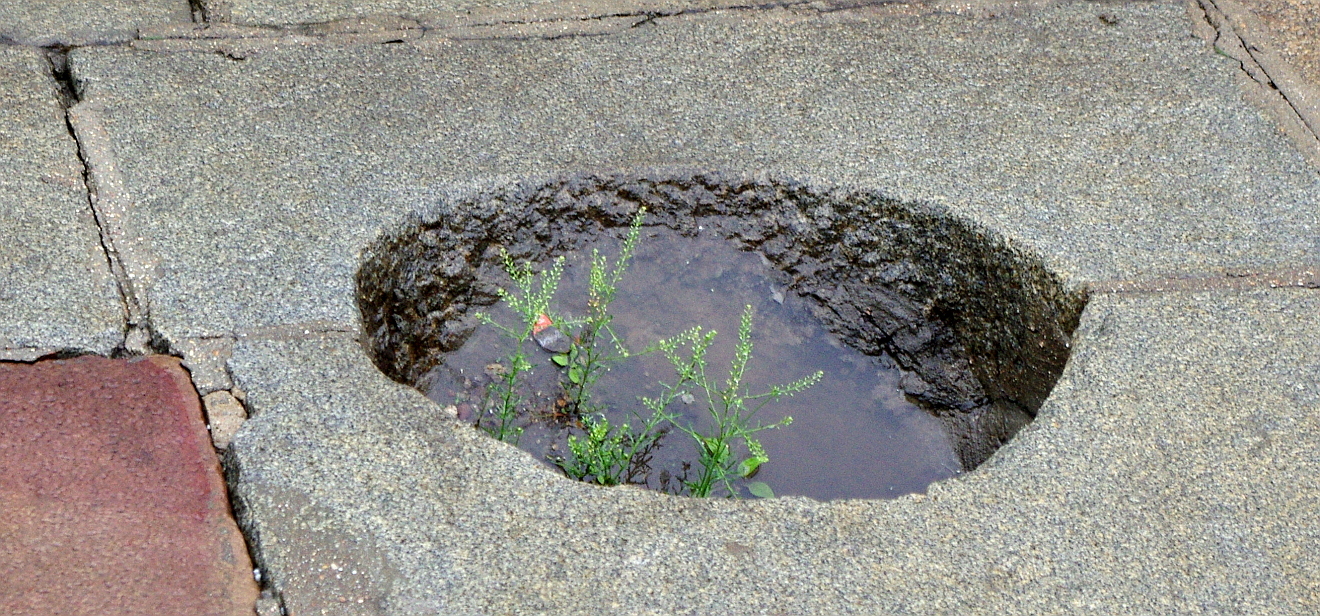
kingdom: Plantae
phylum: Tracheophyta
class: Magnoliopsida
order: Brassicales
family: Brassicaceae
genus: Lepidium
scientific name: Lepidium ruderale
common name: Narrow-leaved pepperwort
